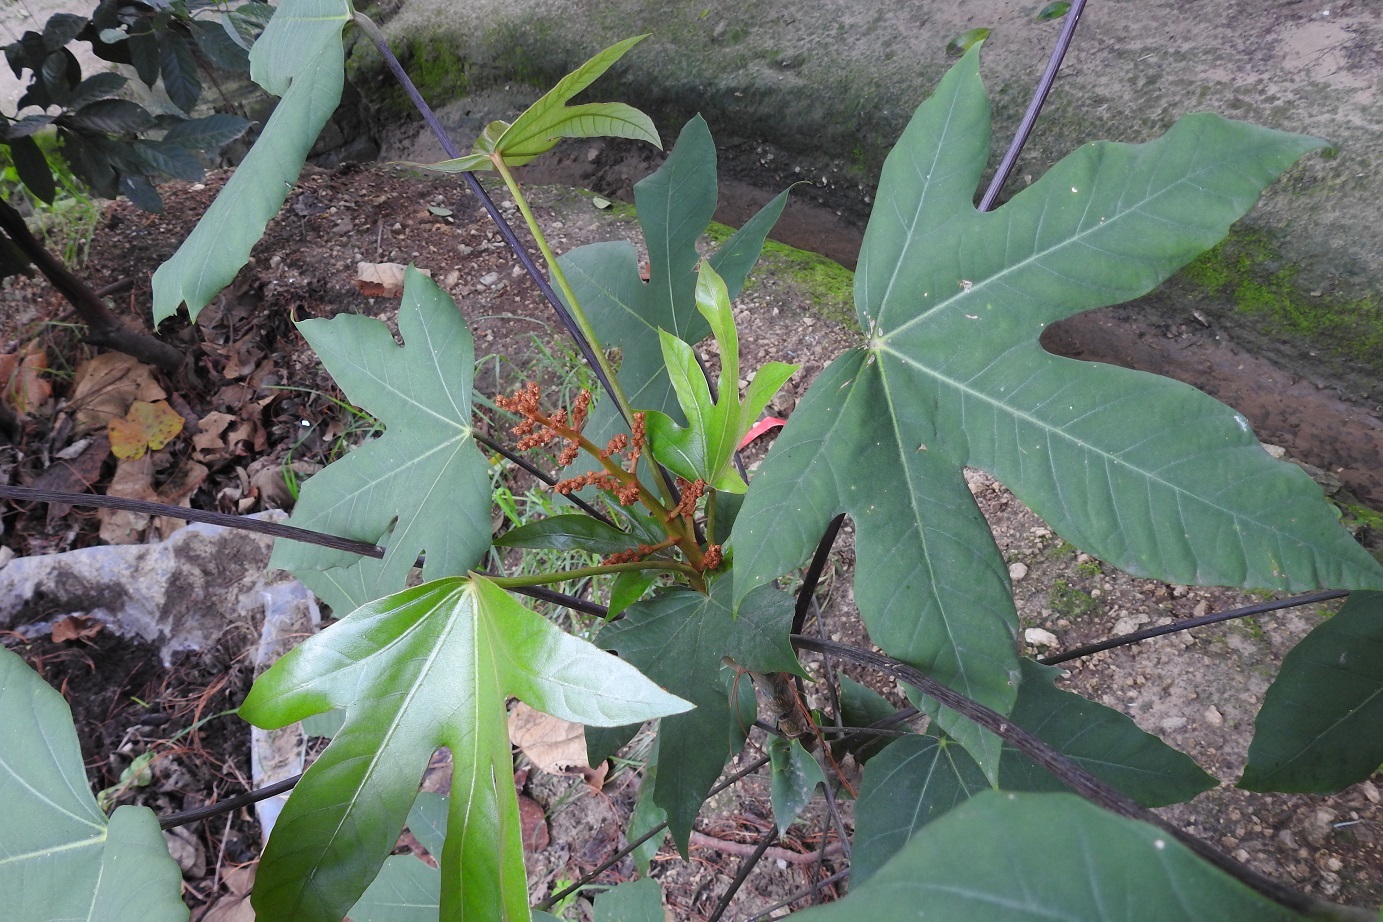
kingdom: Plantae
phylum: Tracheophyta
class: Magnoliopsida
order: Apiales
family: Araliaceae
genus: Oreopanax
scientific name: Oreopanax peltatus
